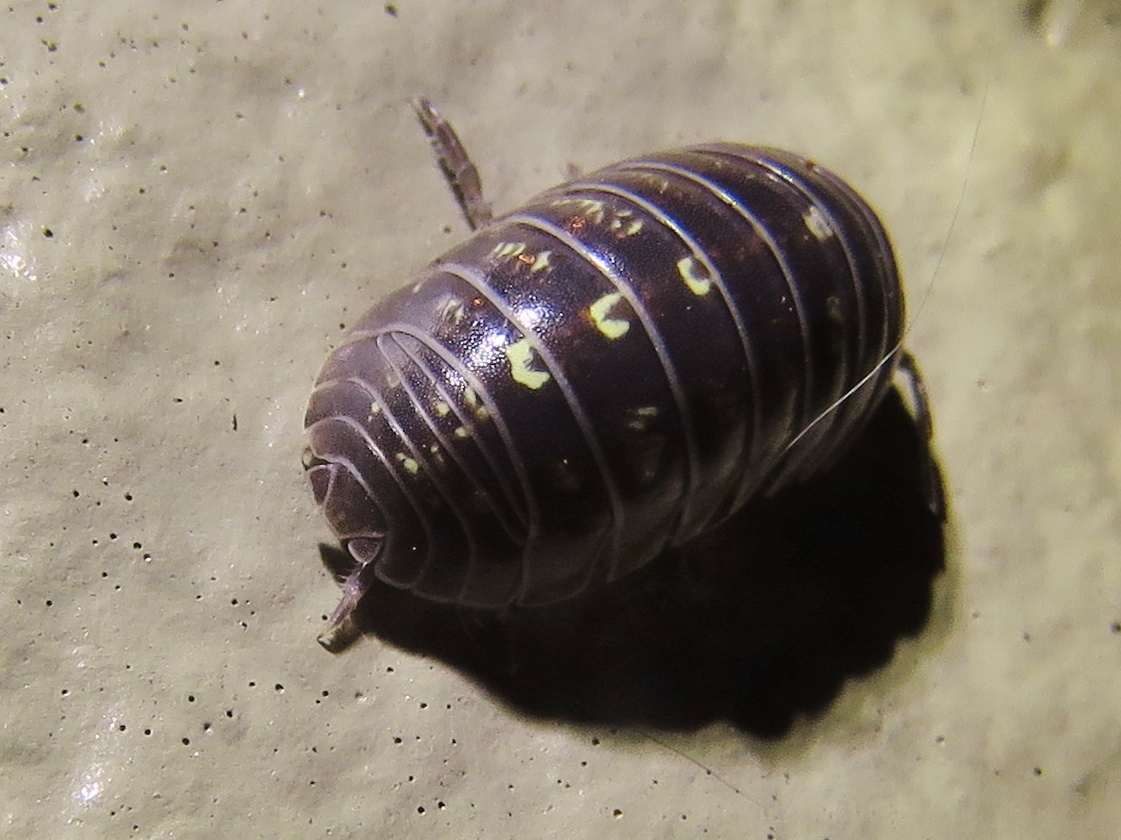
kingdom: Animalia
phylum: Arthropoda
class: Malacostraca
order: Isopoda
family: Armadillidiidae
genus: Armadillidium
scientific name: Armadillidium vulgare
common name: Common pill woodlouse
